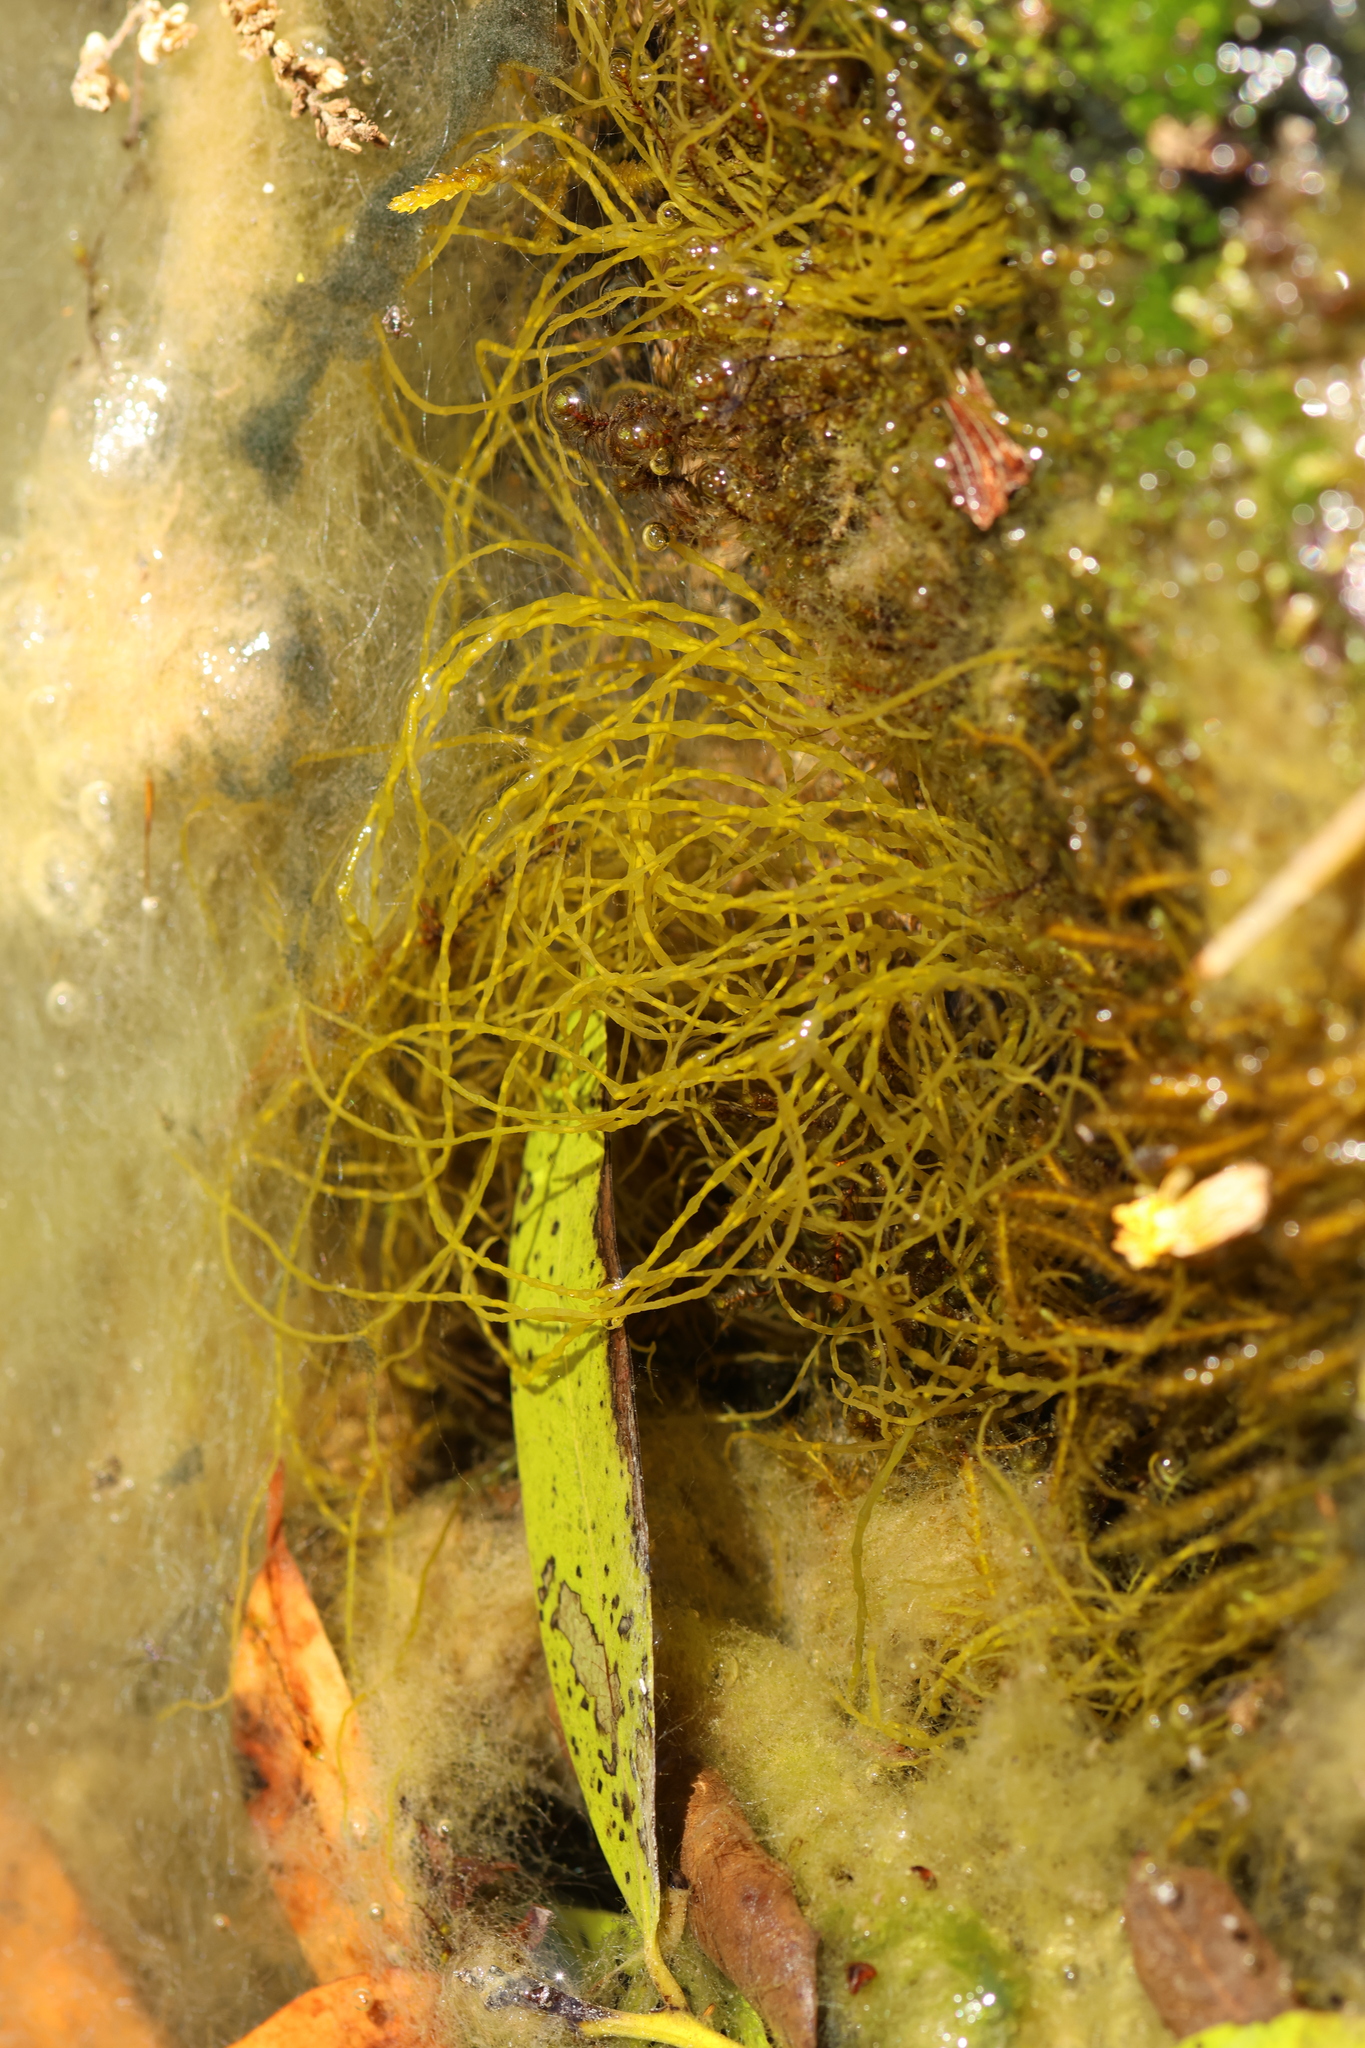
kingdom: Plantae
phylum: Rhodophyta
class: Florideophyceae
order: Batrachospermales
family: Lemaneaceae
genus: Lemanea
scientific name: Lemanea fluviatilis
